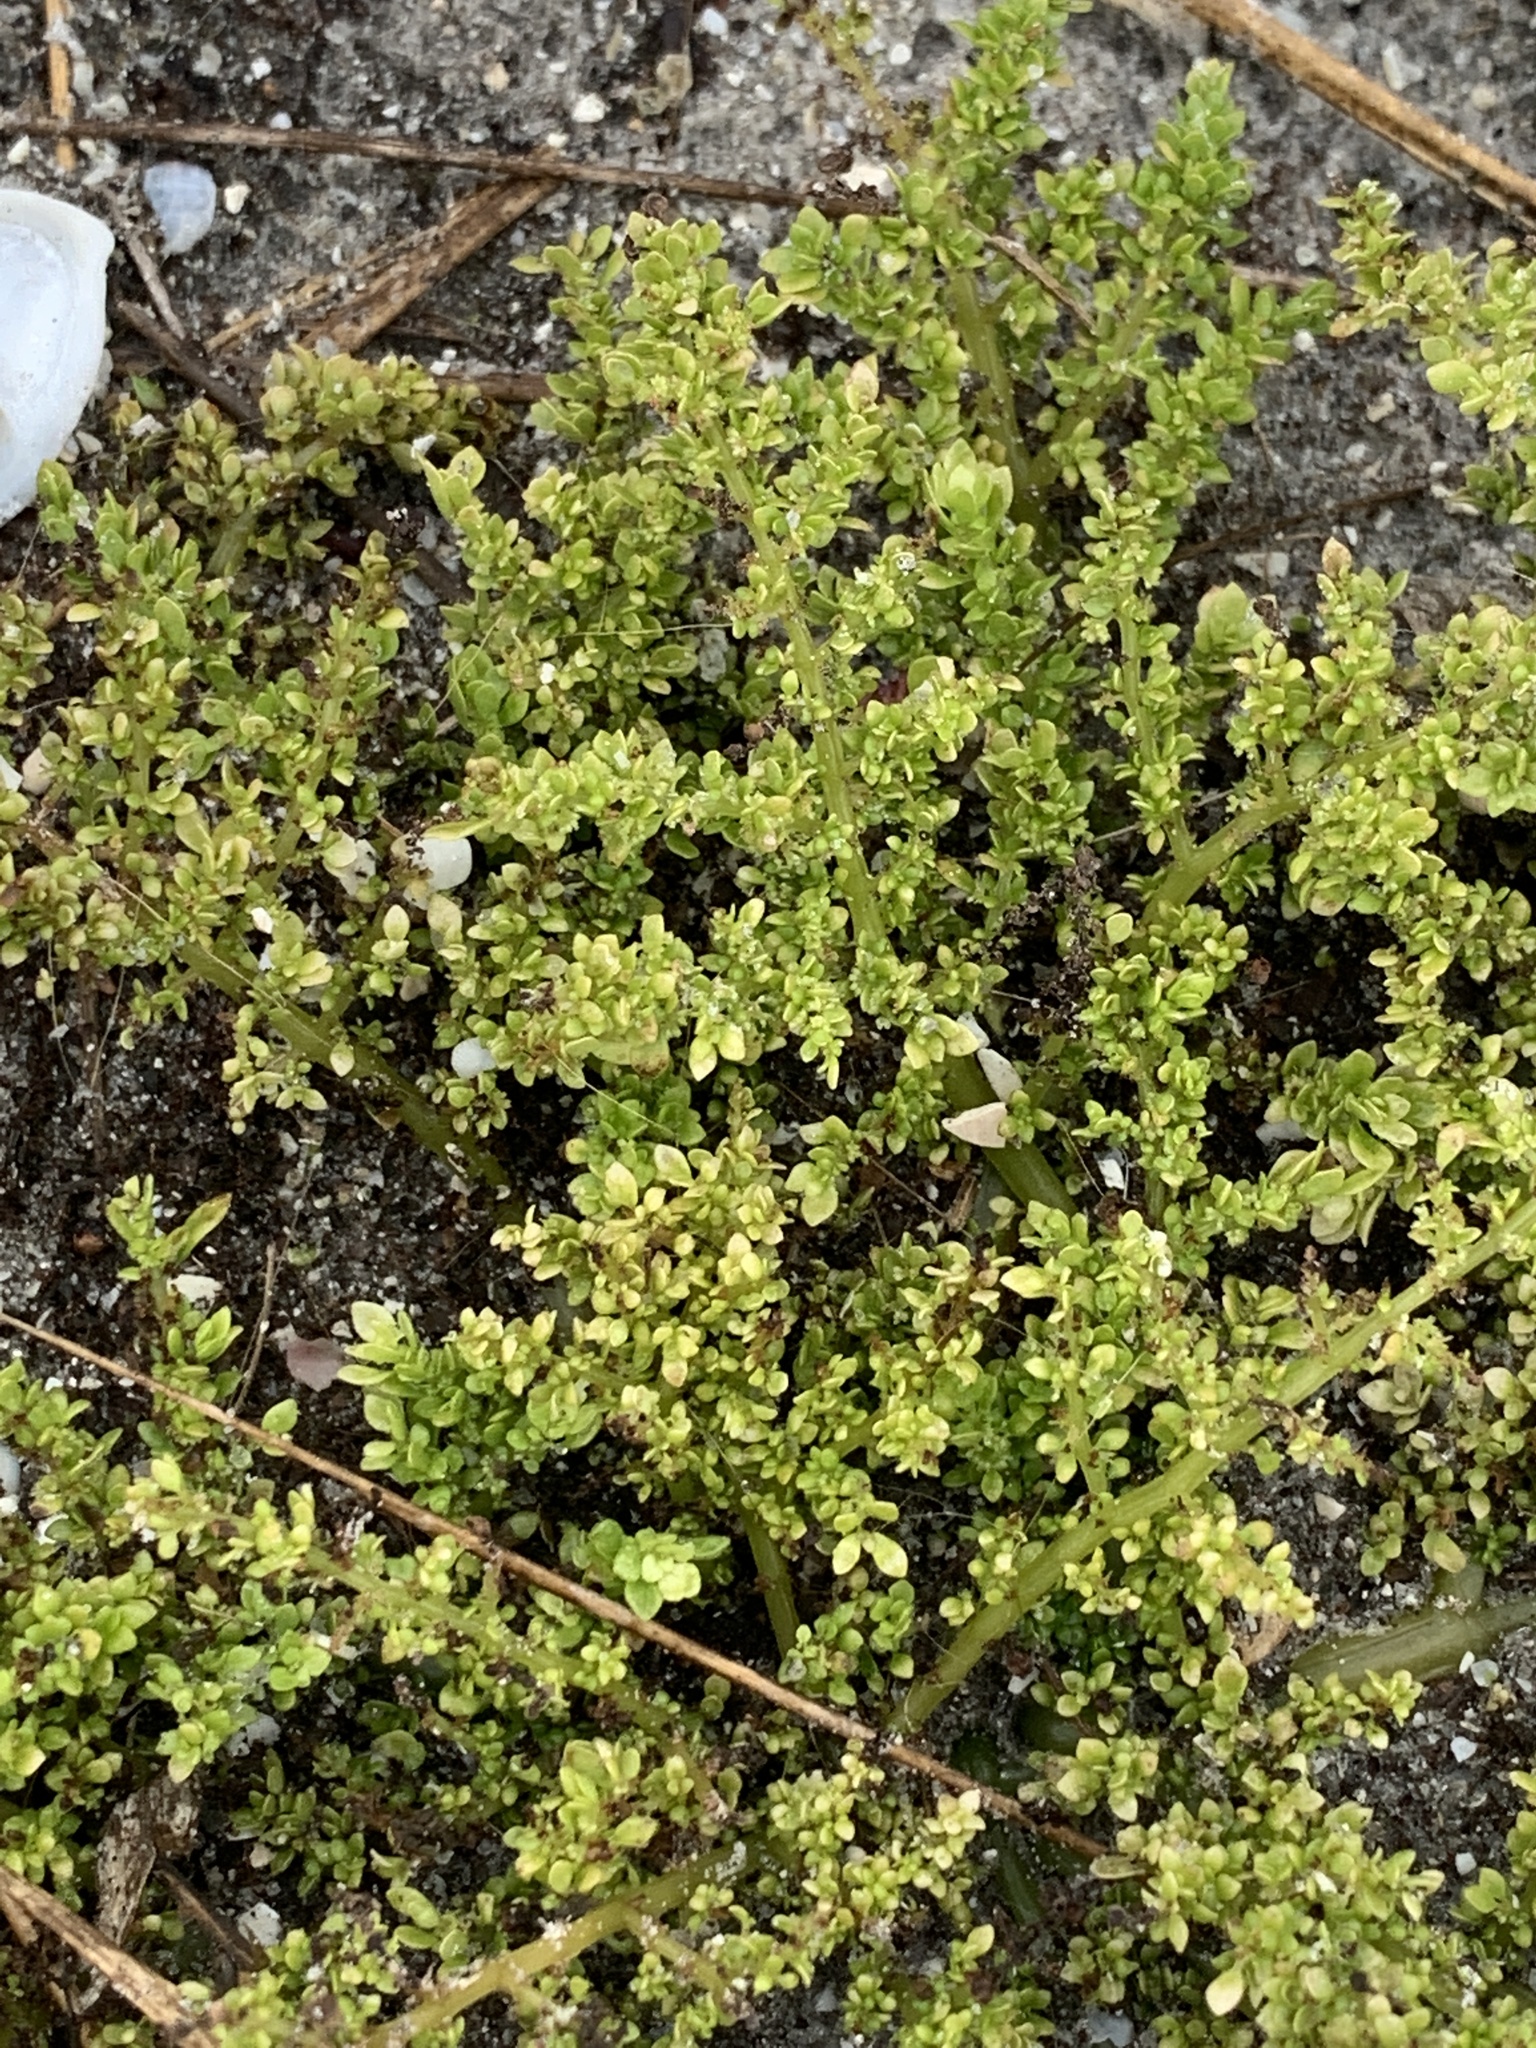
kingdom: Plantae
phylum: Tracheophyta
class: Magnoliopsida
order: Rosales
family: Urticaceae
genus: Pilea
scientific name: Pilea microphylla
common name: Artillery-plant
